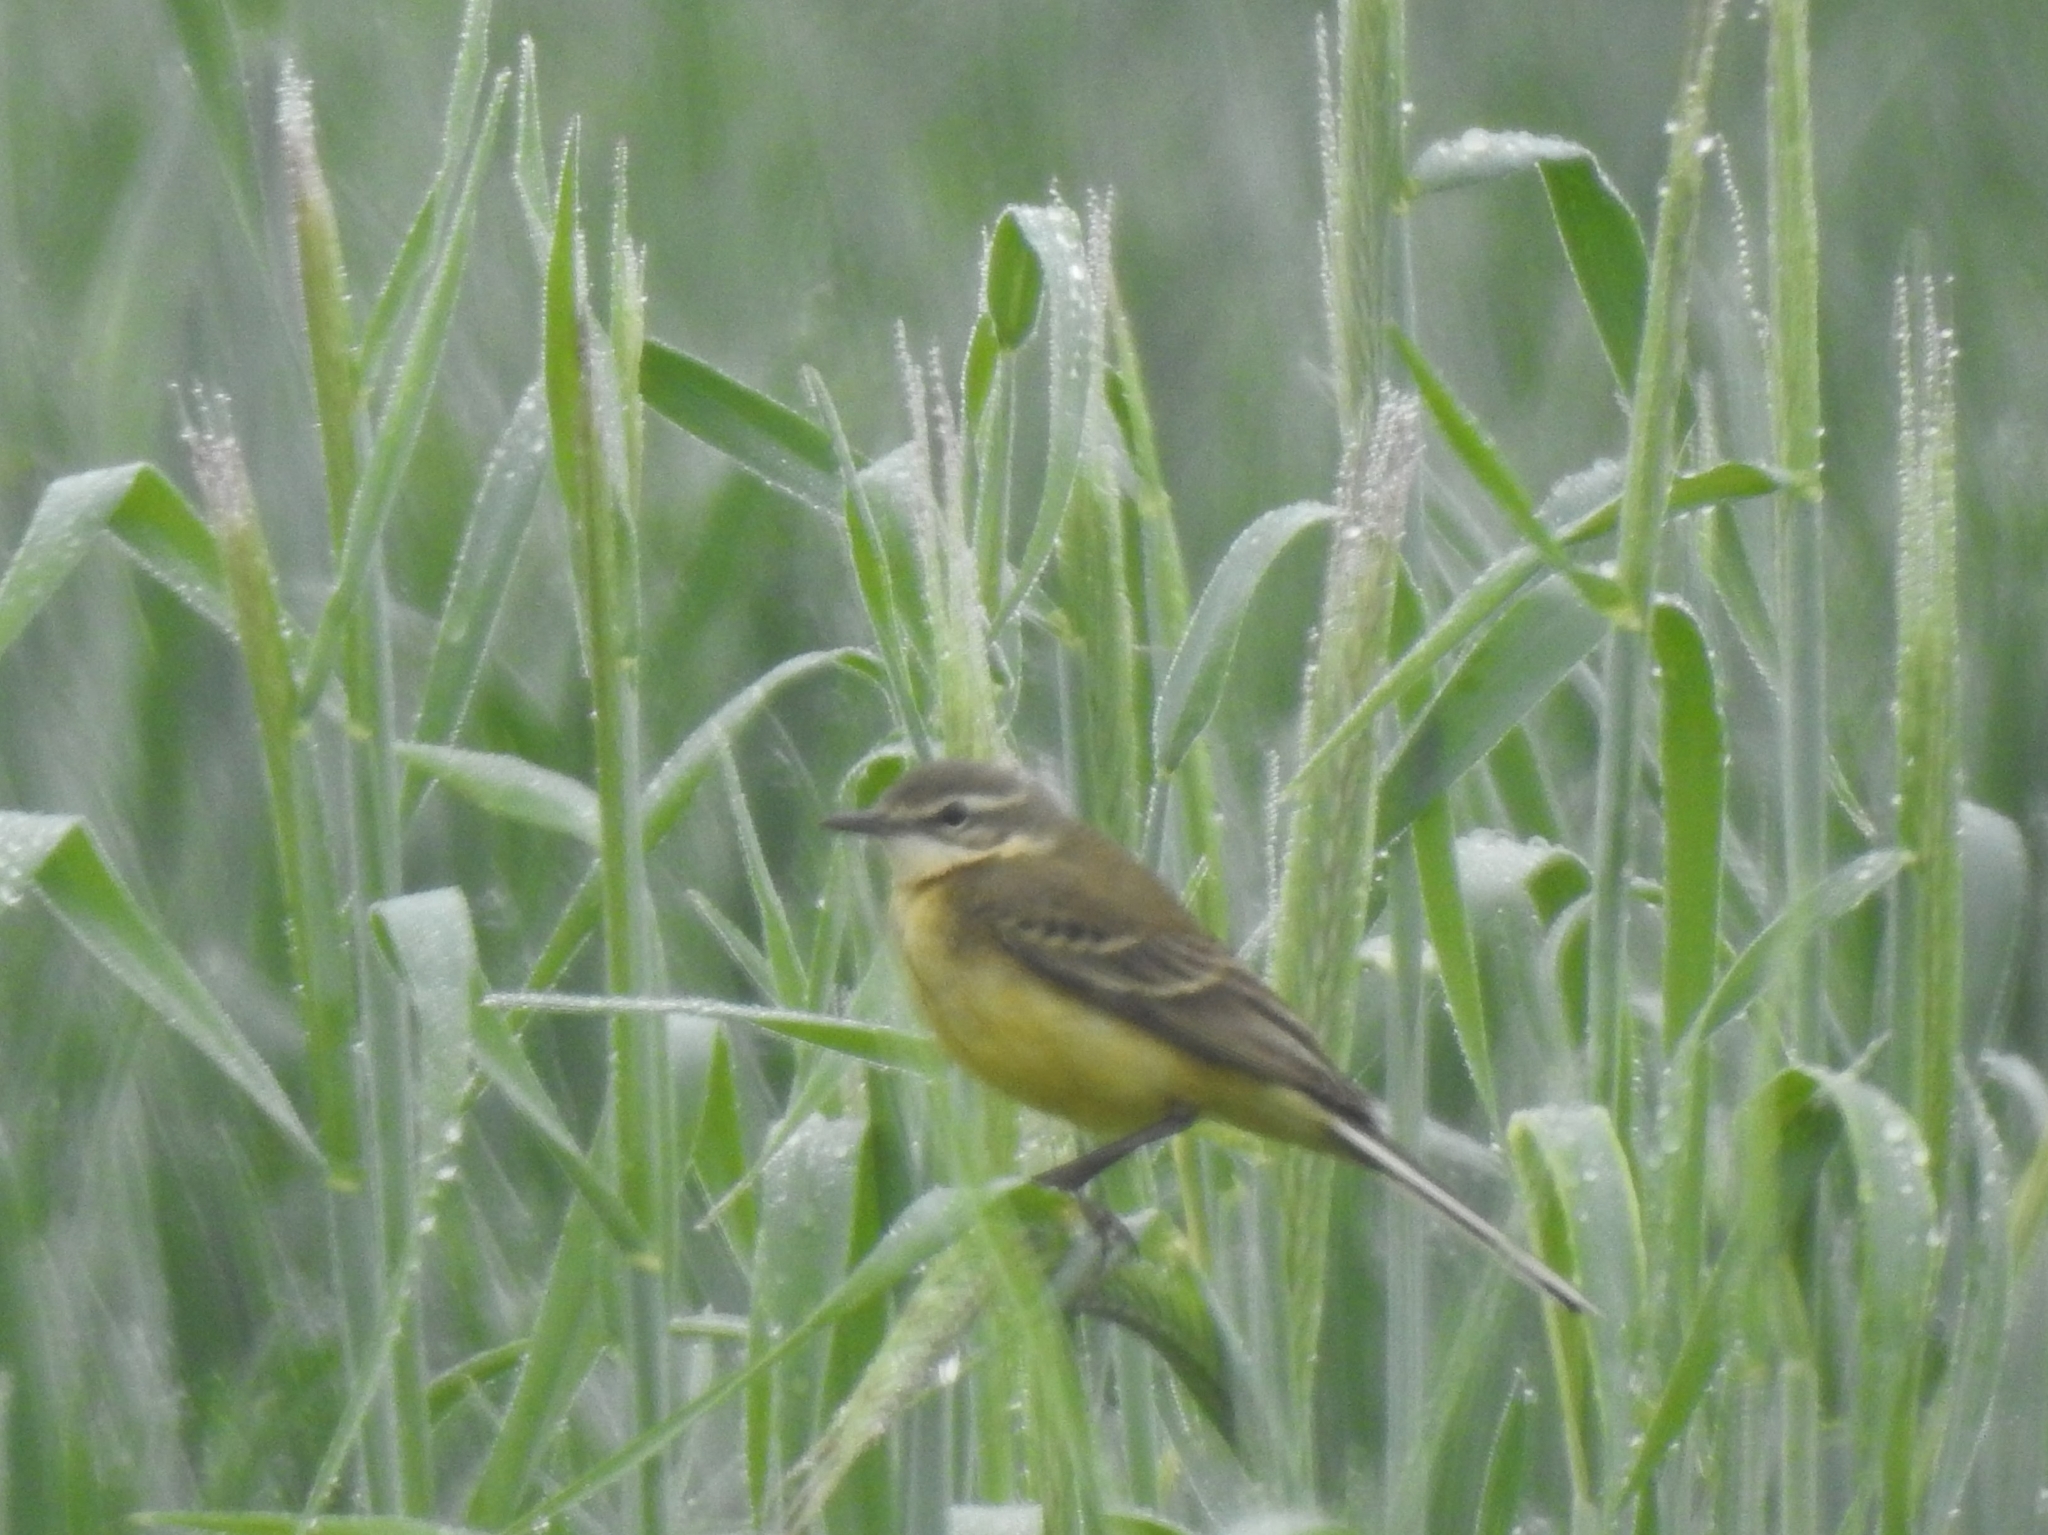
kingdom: Animalia
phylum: Chordata
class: Aves
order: Passeriformes
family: Motacillidae
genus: Motacilla
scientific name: Motacilla flava
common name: Western yellow wagtail
